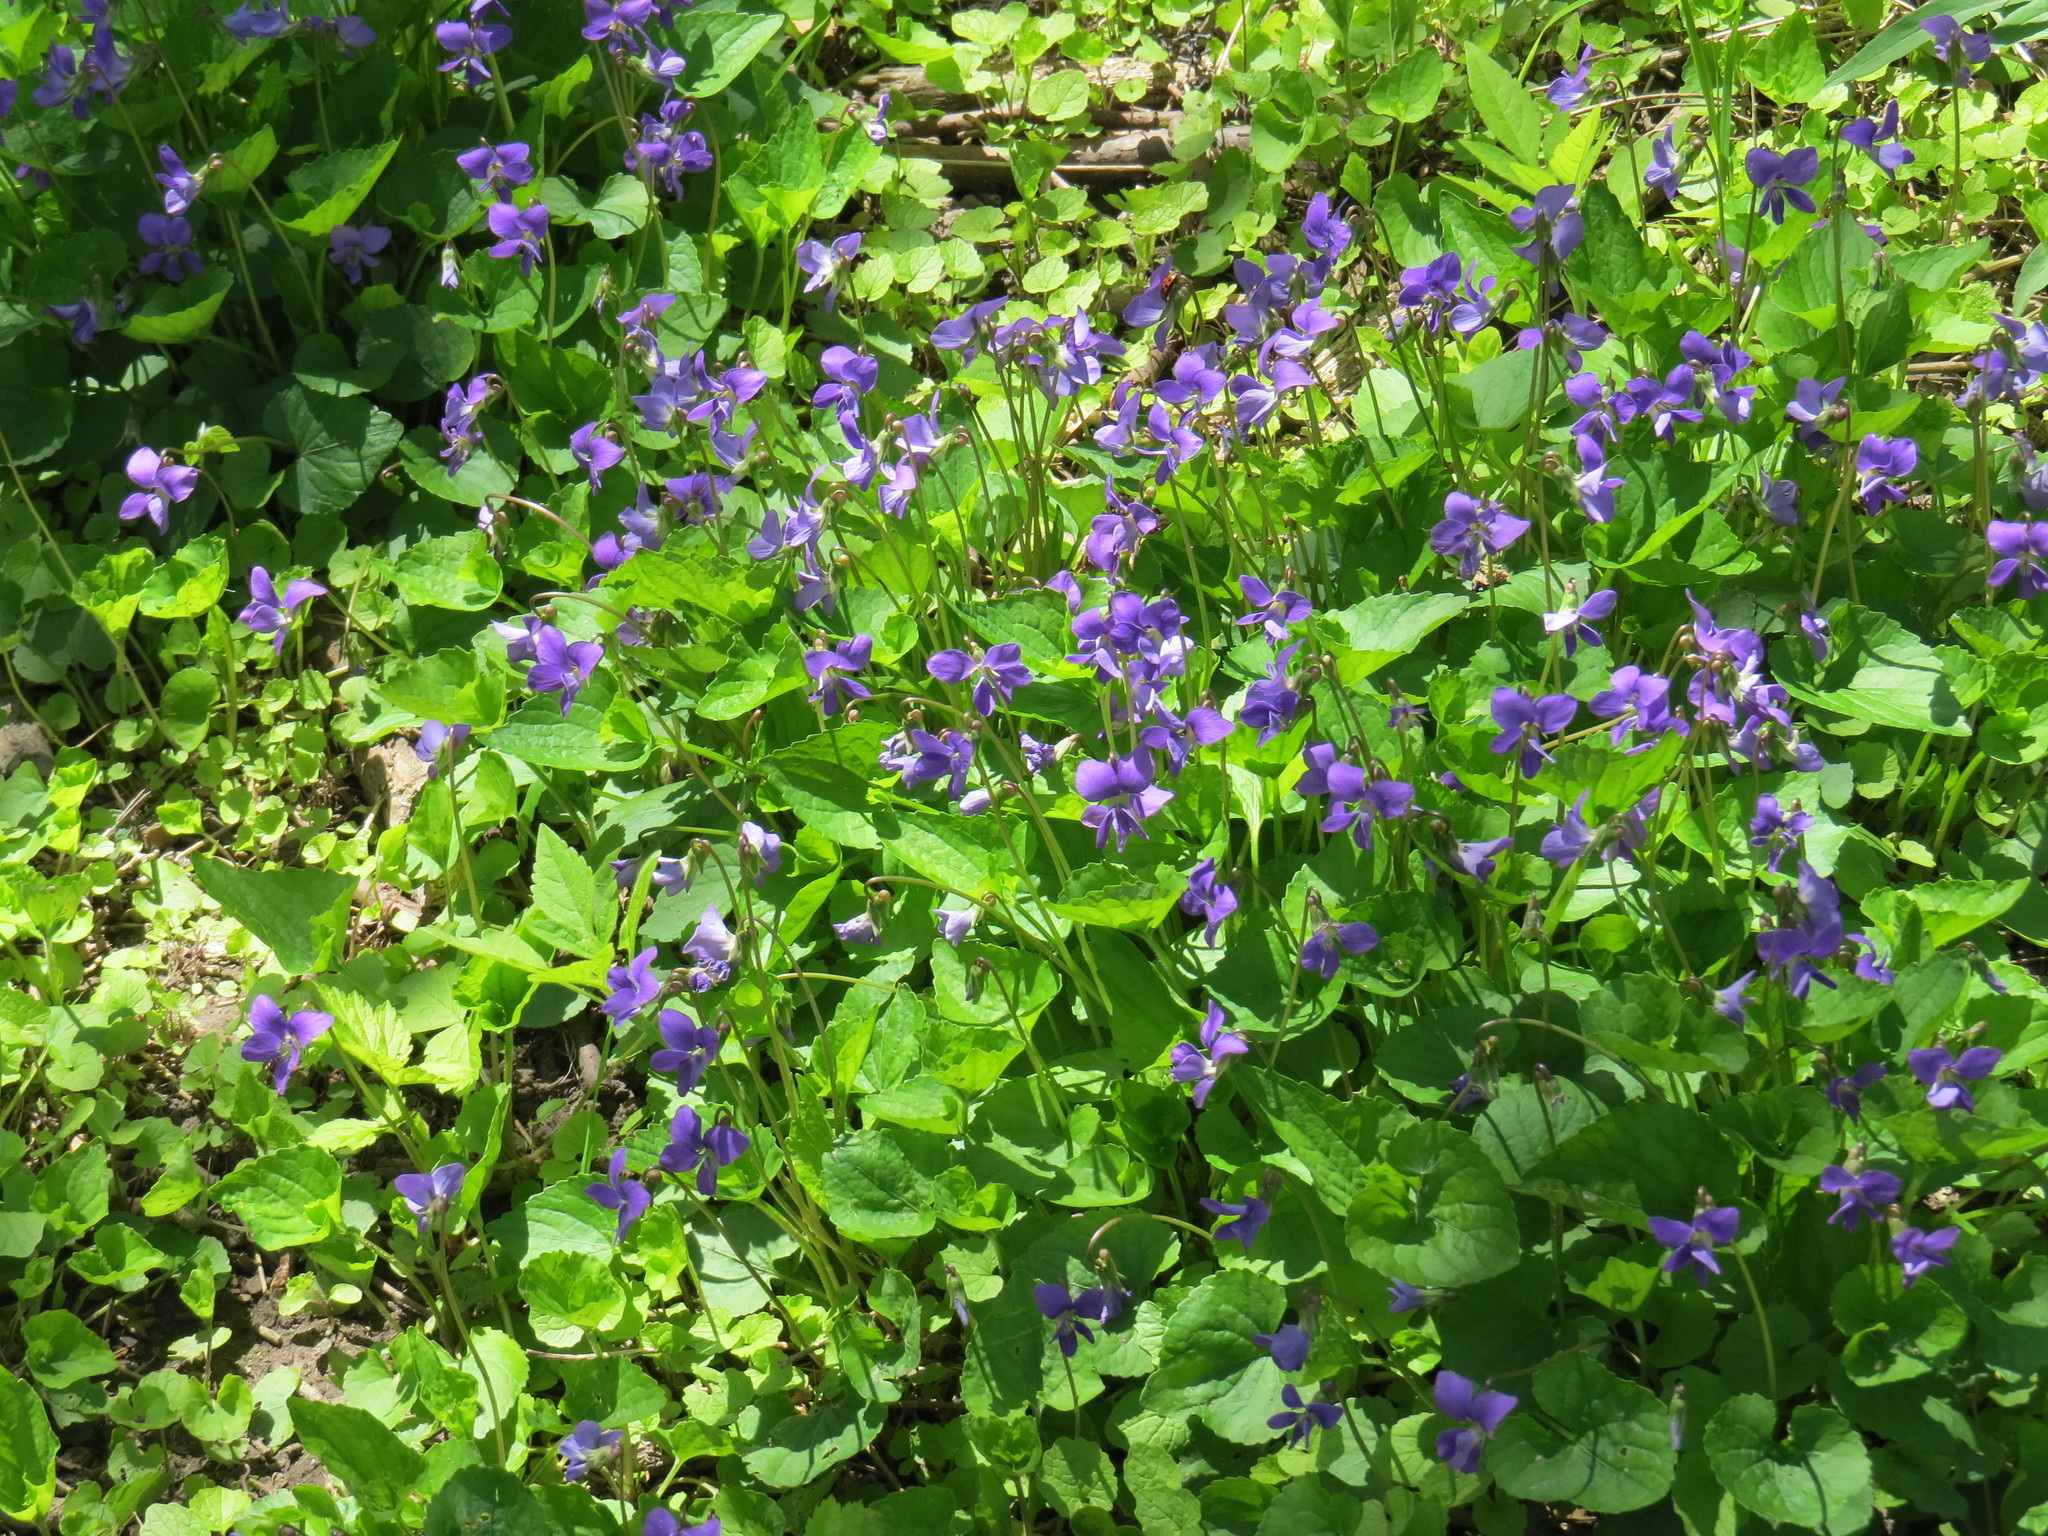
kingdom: Plantae
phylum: Tracheophyta
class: Magnoliopsida
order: Malpighiales
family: Violaceae
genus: Viola
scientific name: Viola cucullata
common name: Marsh blue violet
